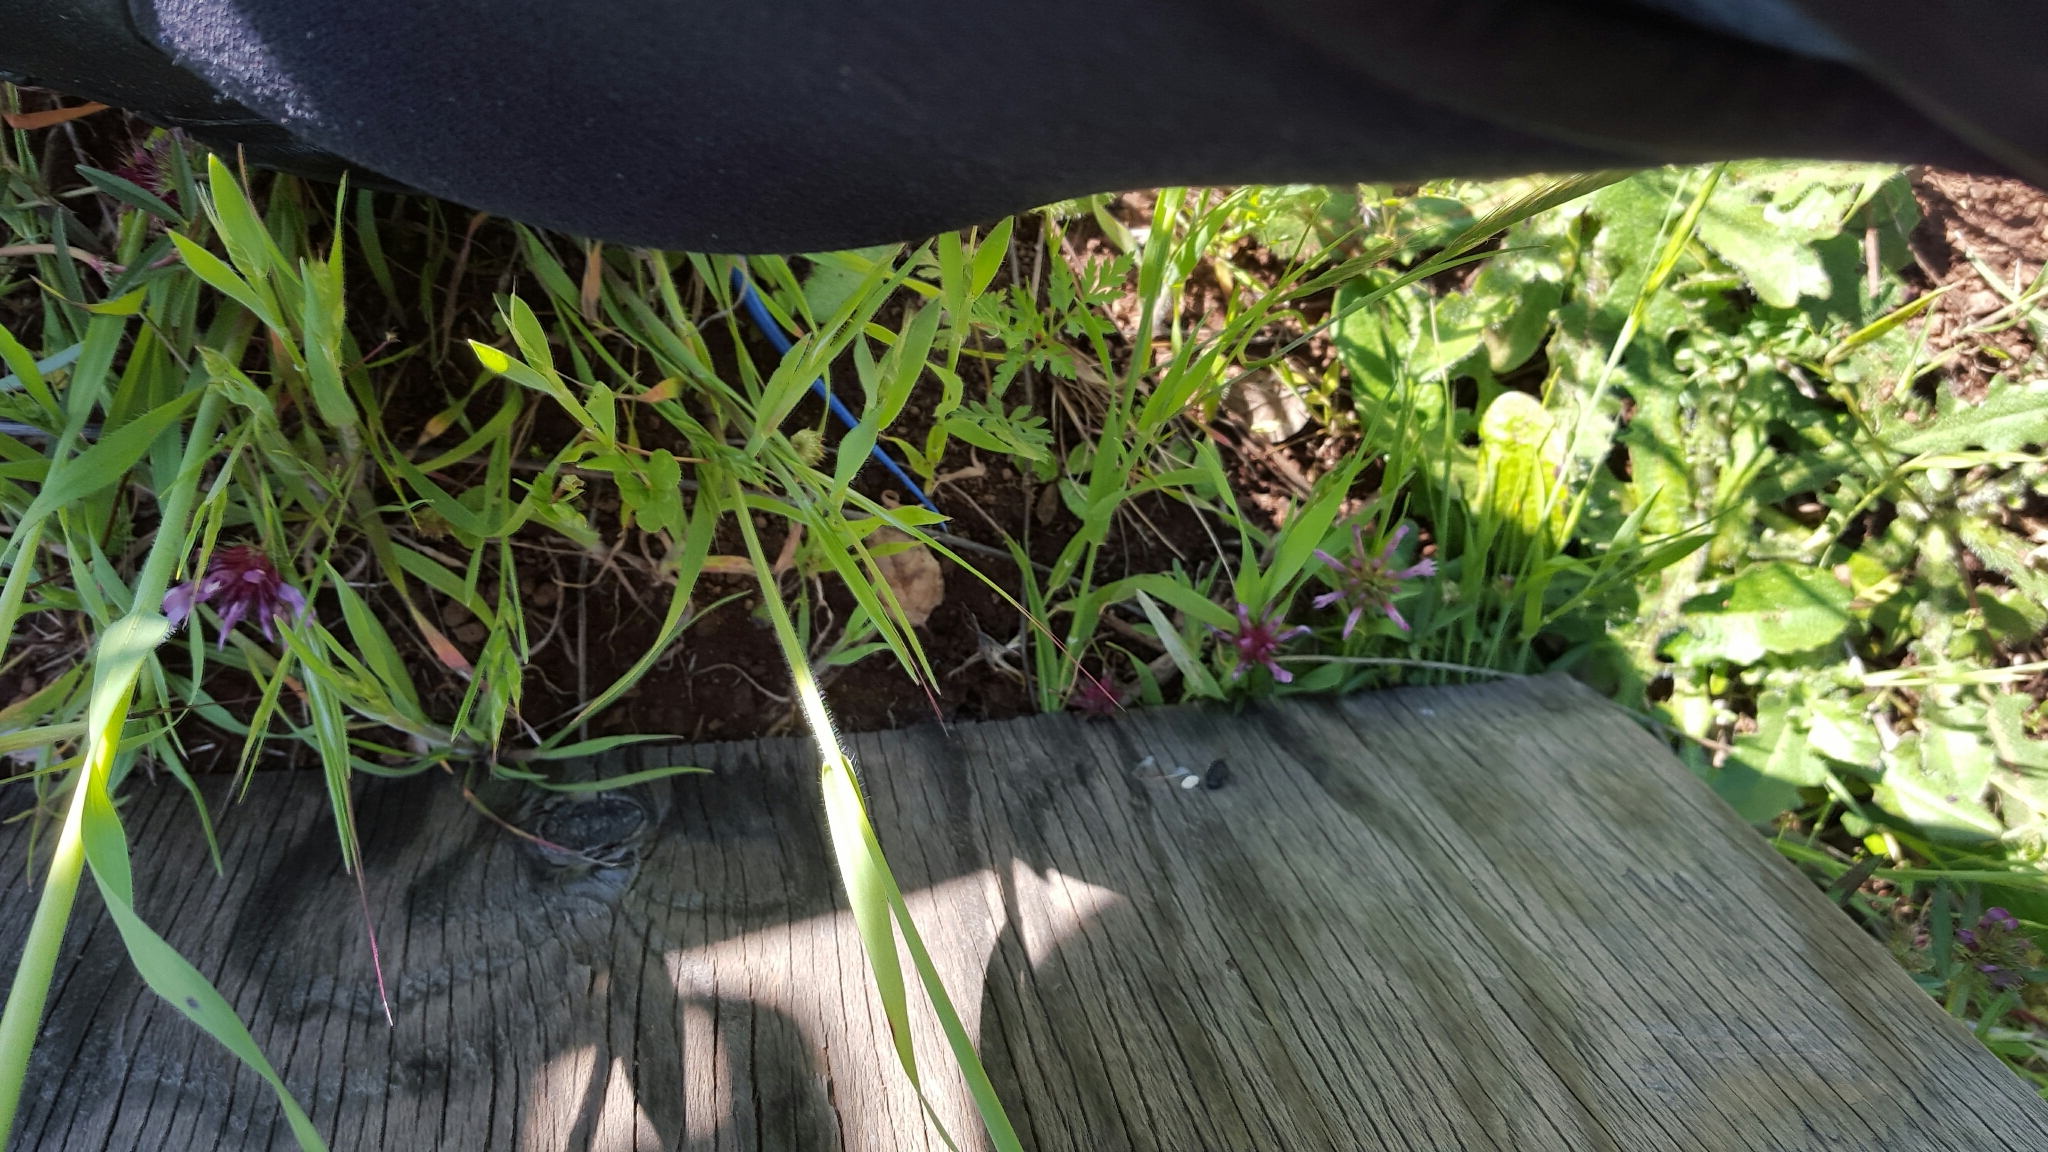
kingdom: Animalia
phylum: Chordata
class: Squamata
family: Scincidae
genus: Plestiodon
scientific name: Plestiodon skiltonianus
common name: Coronado island skink [interparietalis]
